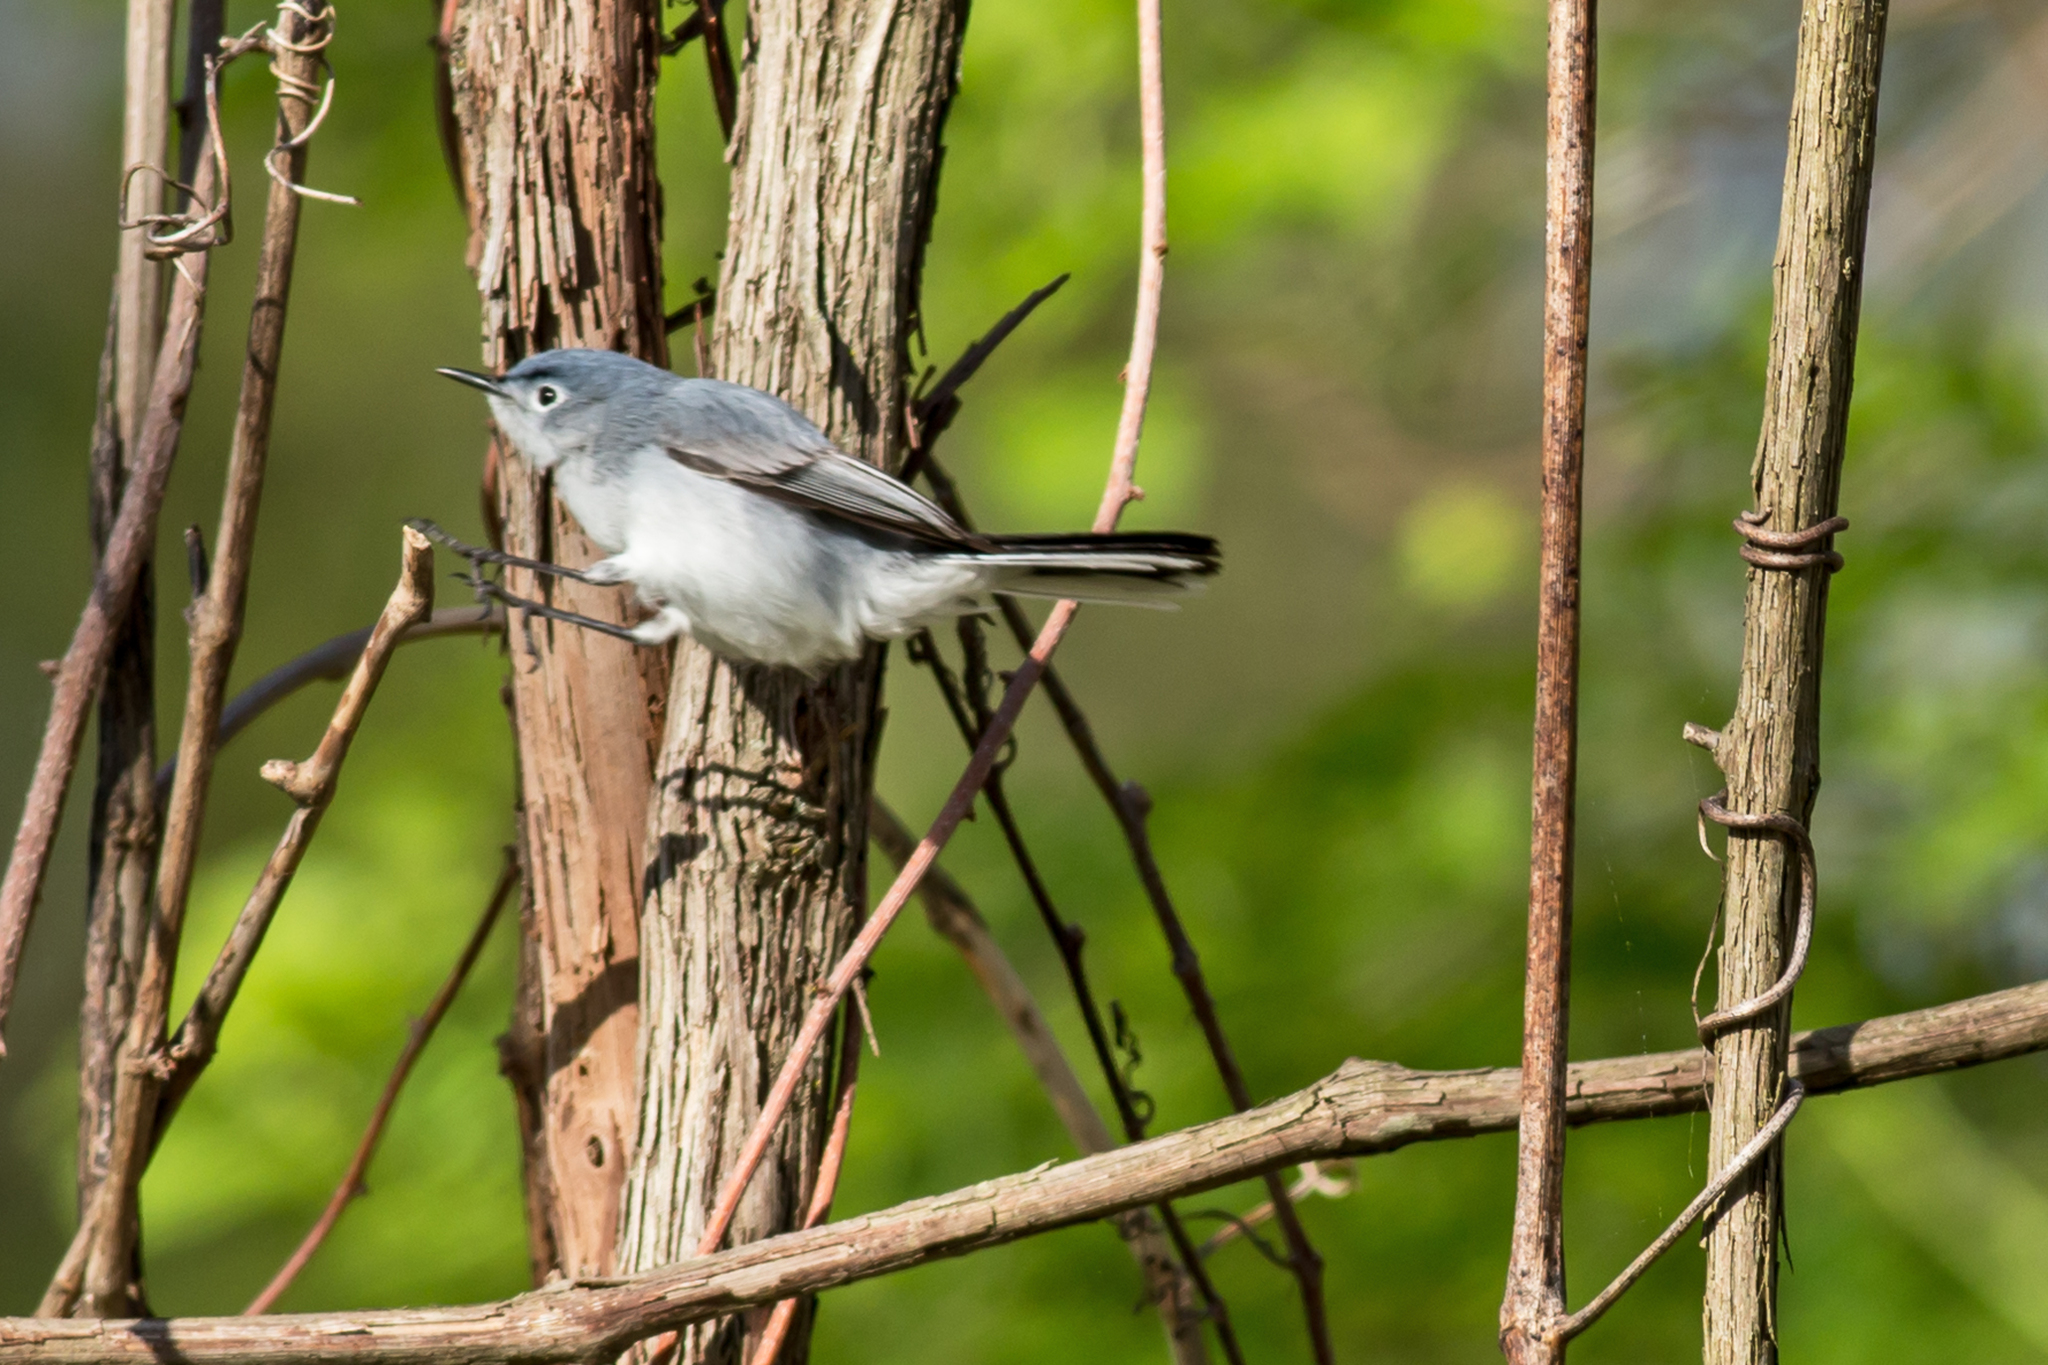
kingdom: Animalia
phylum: Chordata
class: Aves
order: Passeriformes
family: Polioptilidae
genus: Polioptila
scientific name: Polioptila caerulea
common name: Blue-gray gnatcatcher
